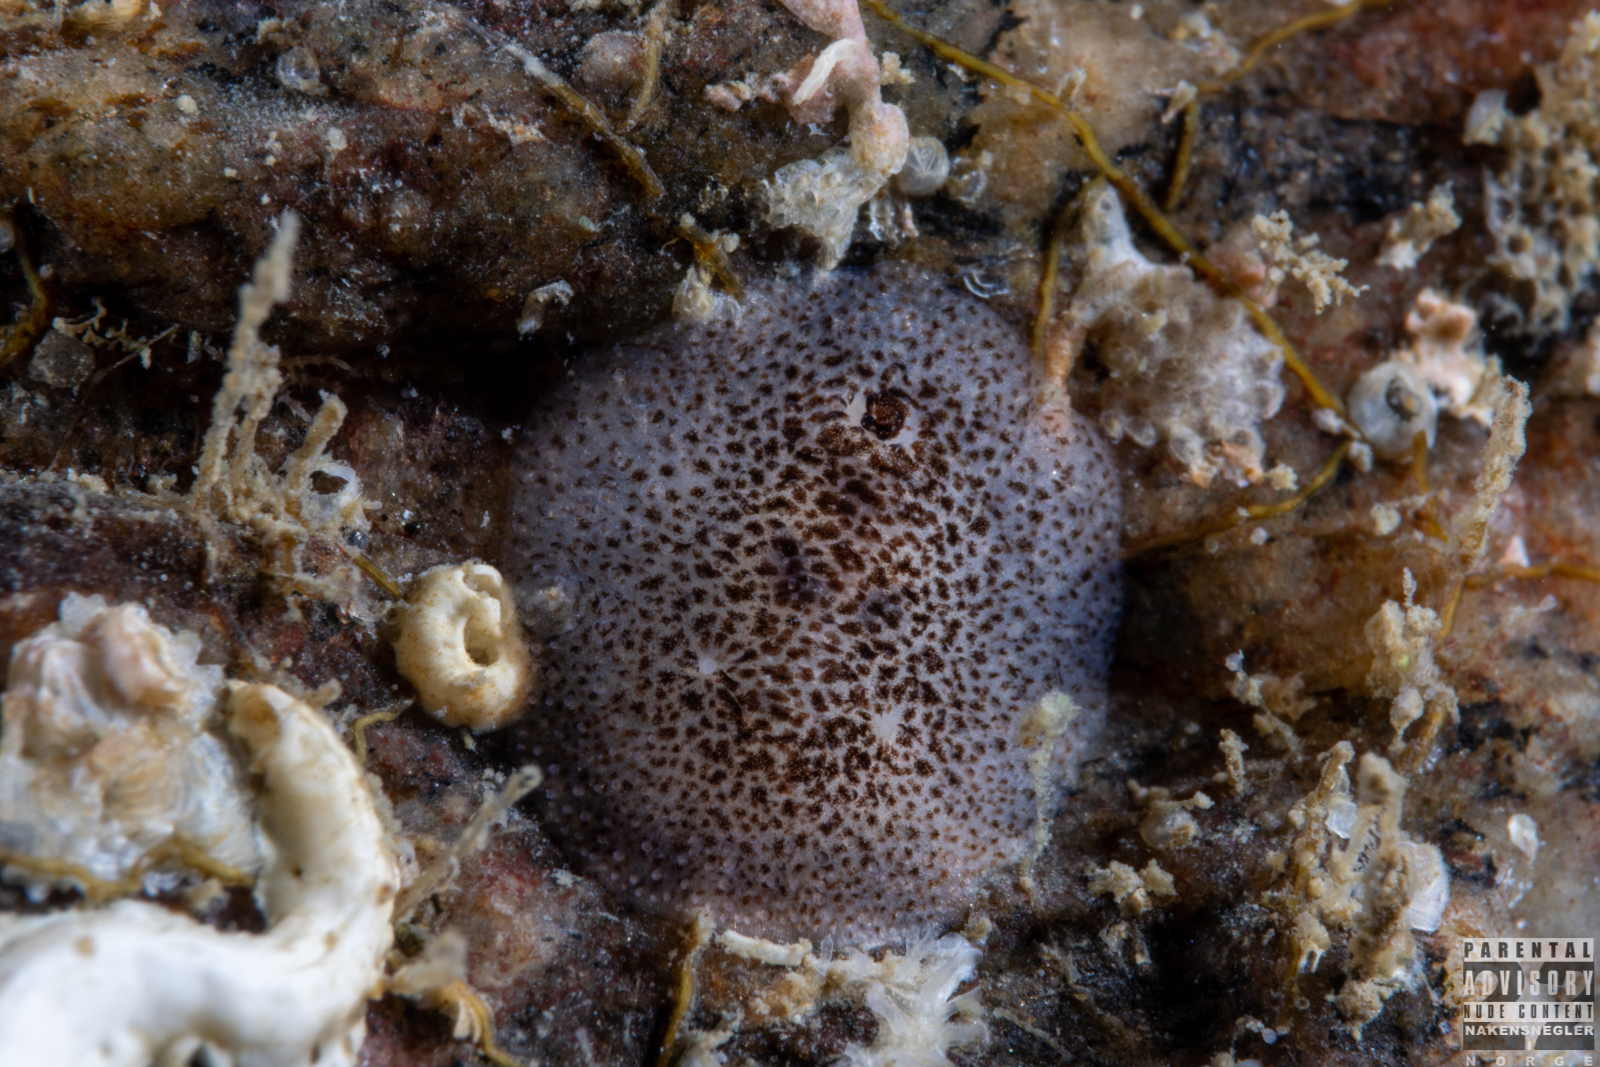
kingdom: Animalia
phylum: Mollusca
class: Gastropoda
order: Nudibranchia
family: Onchidorididae
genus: Atalodoris
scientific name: Atalodoris pusilla
